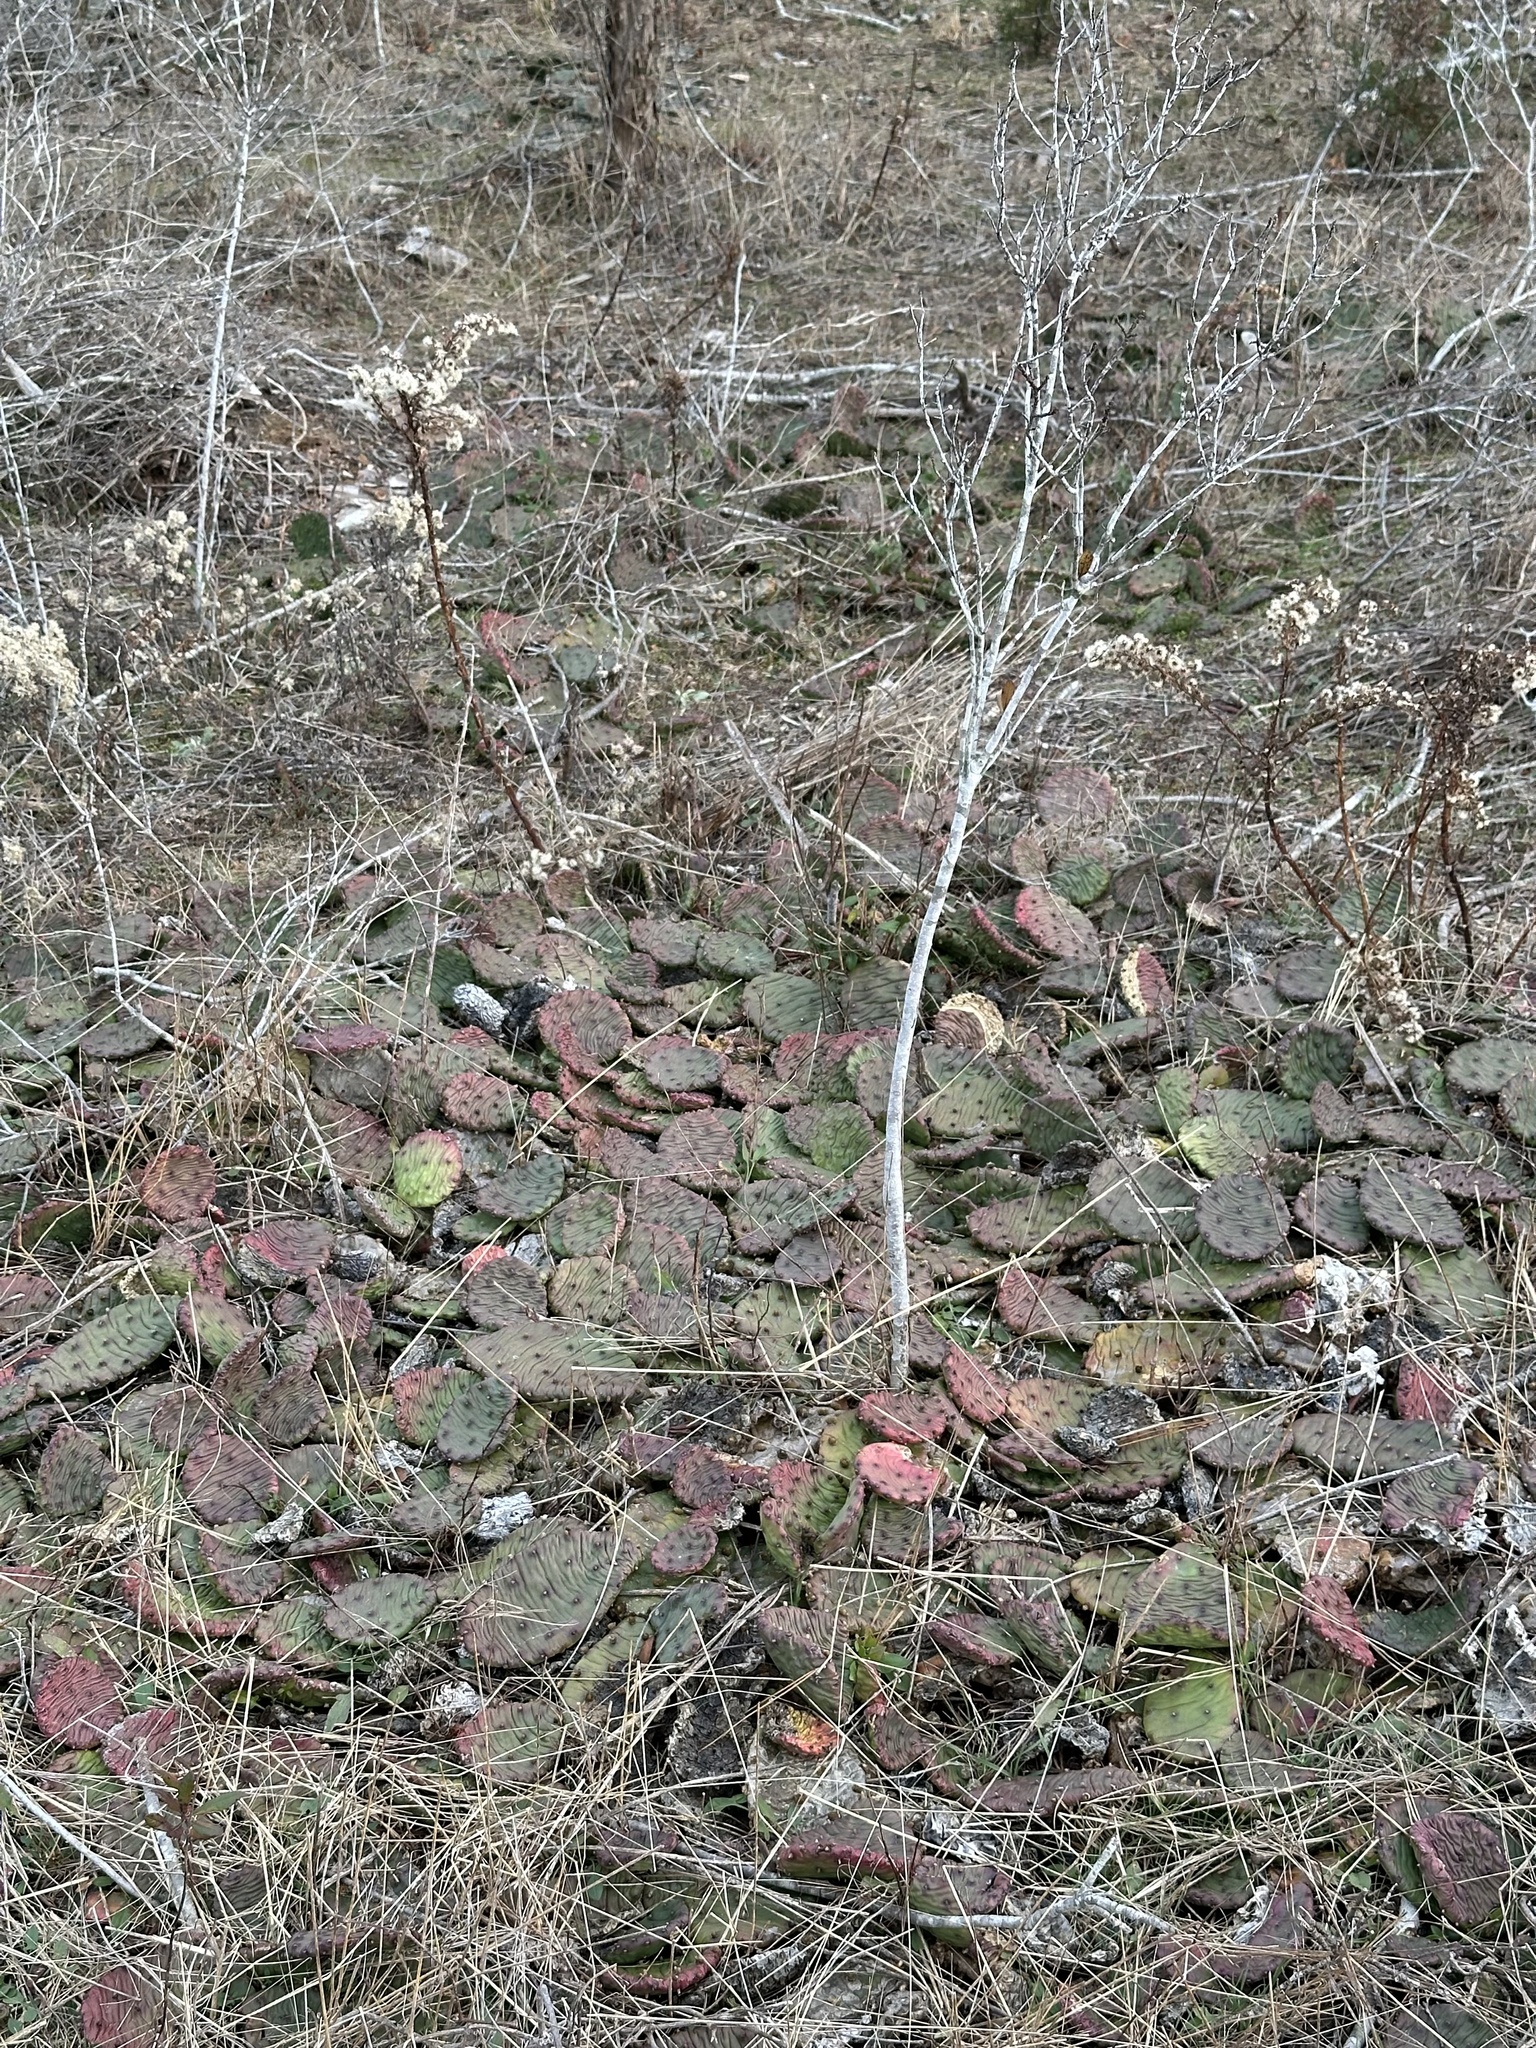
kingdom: Plantae
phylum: Tracheophyta
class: Magnoliopsida
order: Caryophyllales
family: Cactaceae
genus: Opuntia
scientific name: Opuntia humifusa
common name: Eastern prickly-pear
